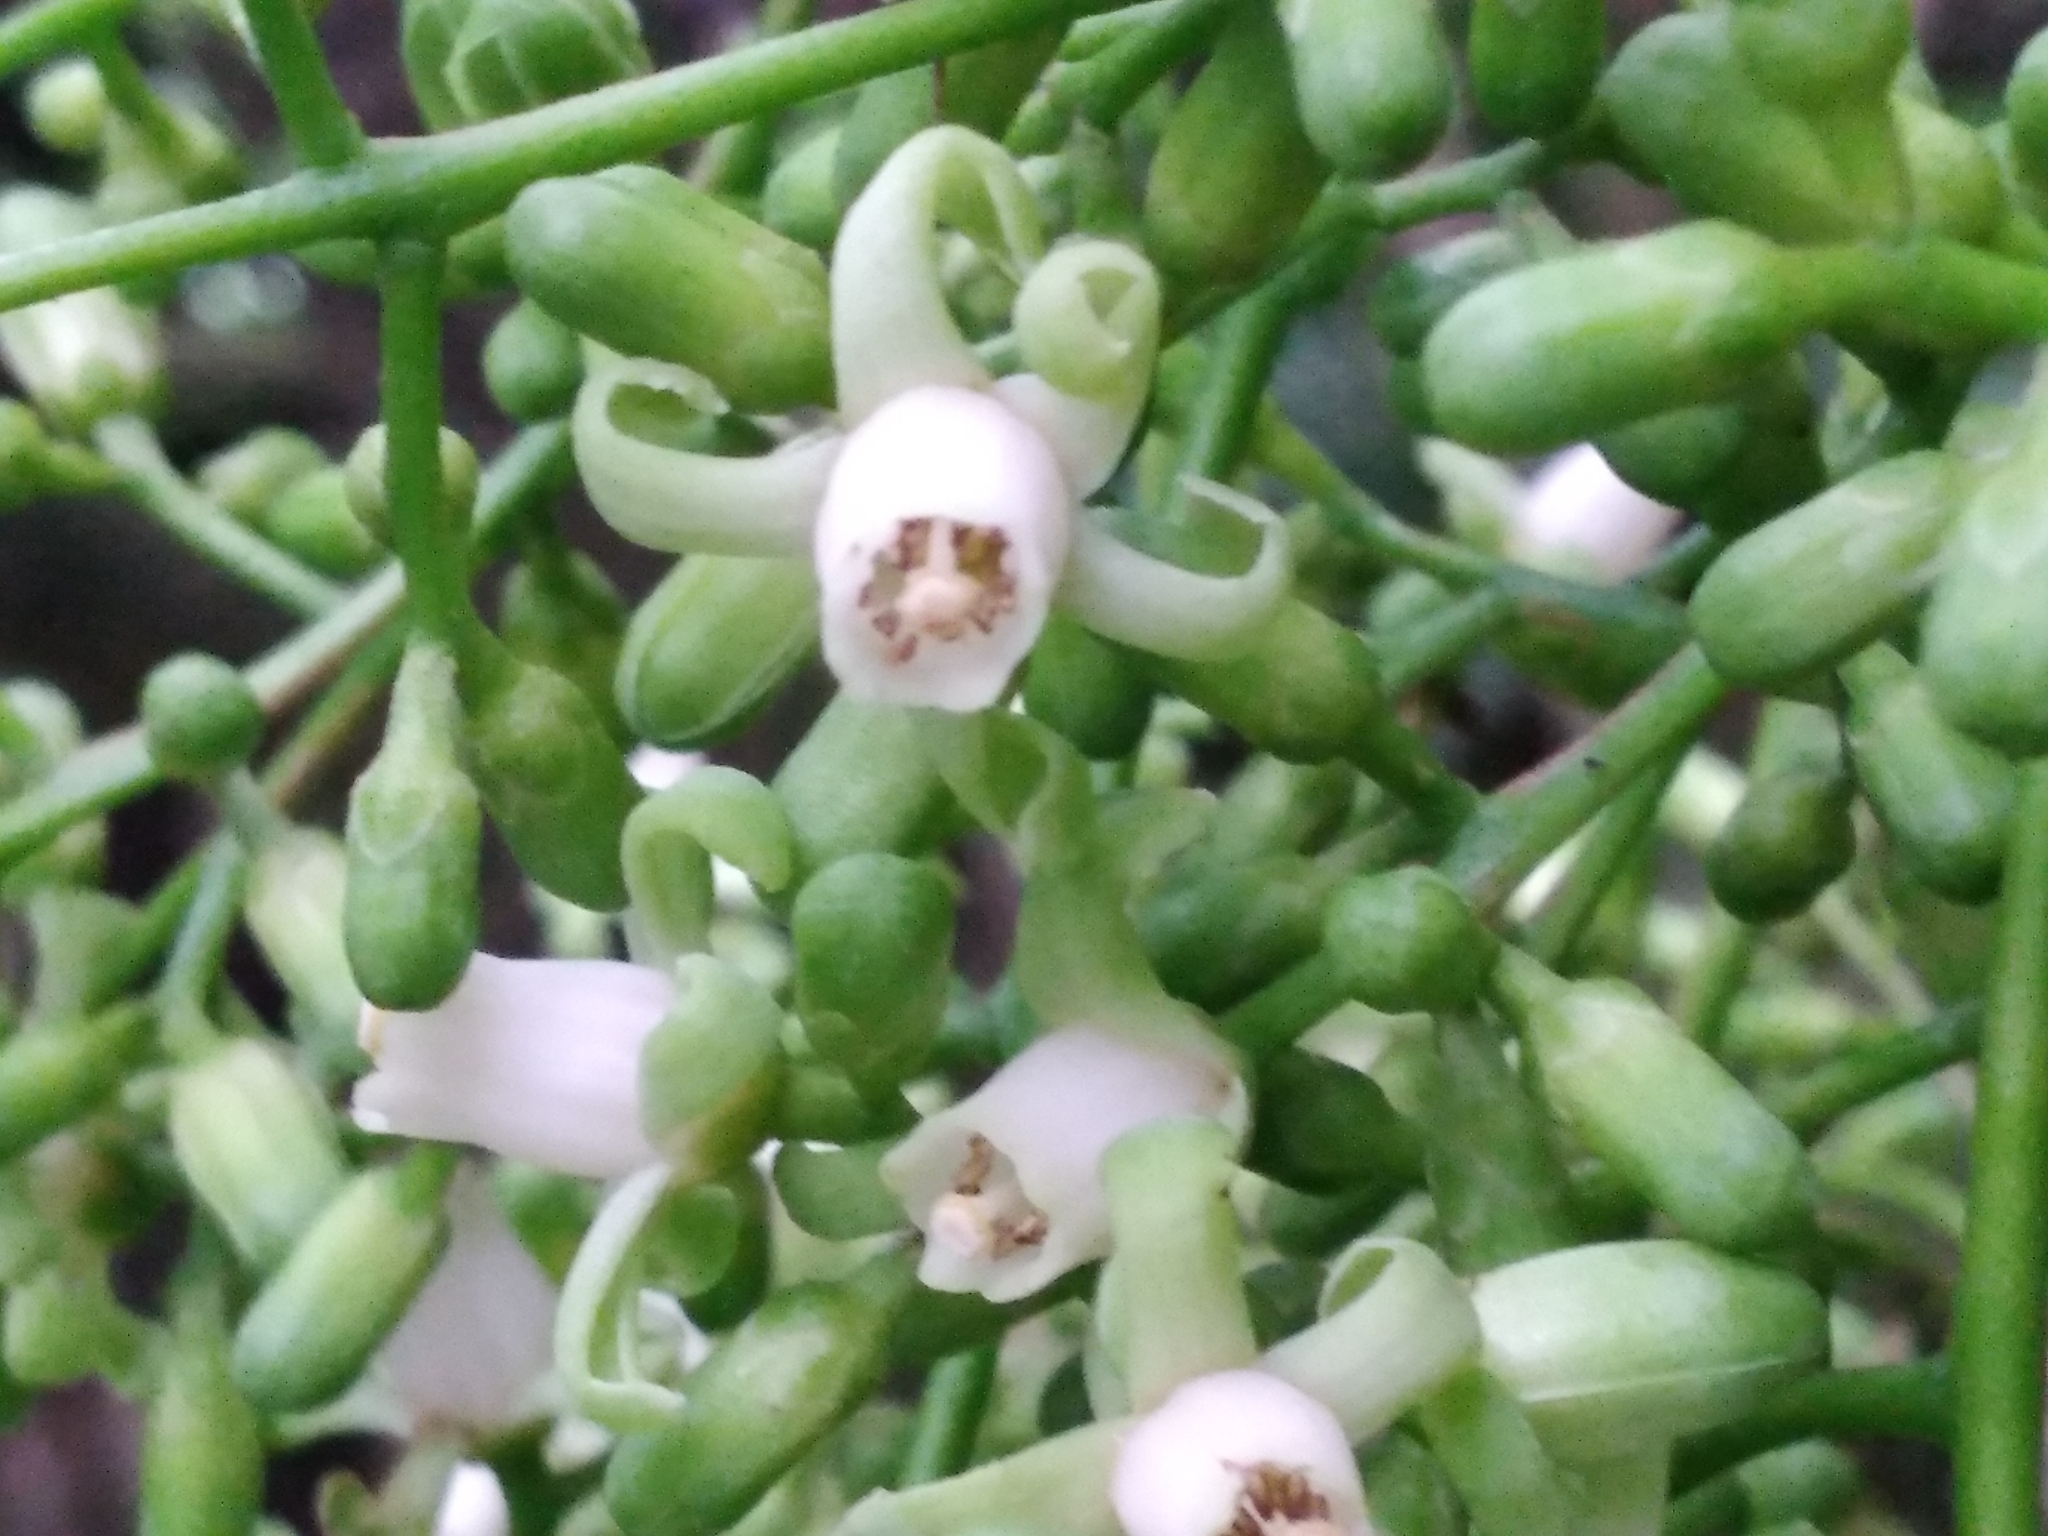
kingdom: Plantae
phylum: Tracheophyta
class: Magnoliopsida
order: Sapindales
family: Meliaceae
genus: Didymocheton
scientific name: Didymocheton spectabilis
